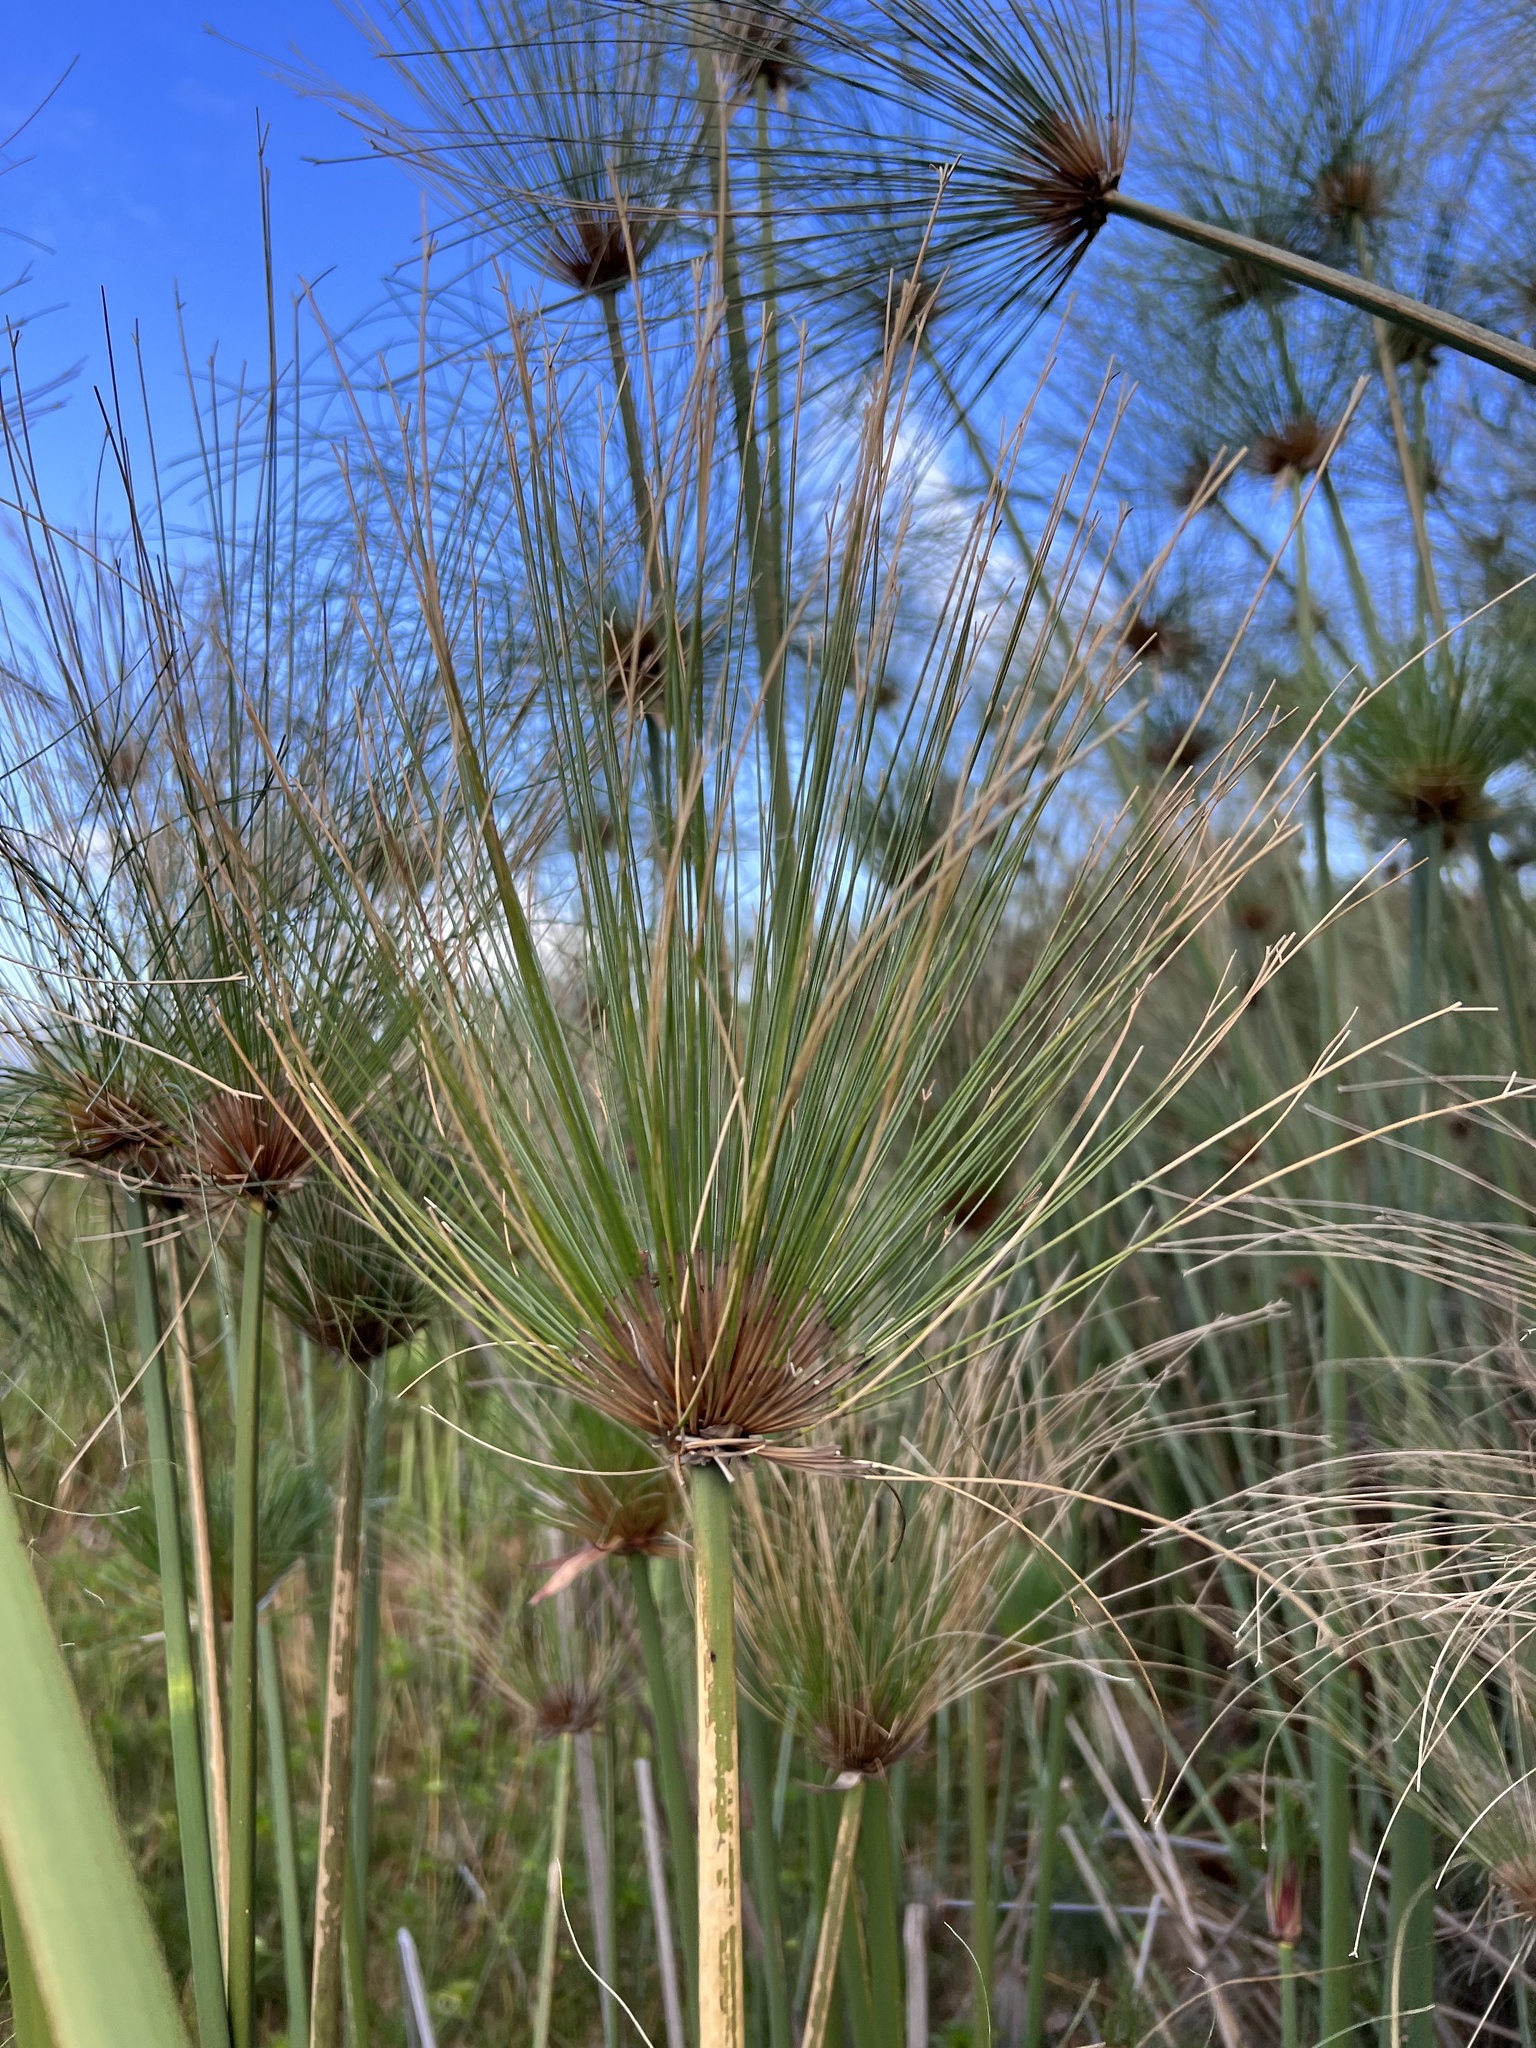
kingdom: Plantae
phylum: Tracheophyta
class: Liliopsida
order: Poales
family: Cyperaceae
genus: Cyperus
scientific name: Cyperus papyrus
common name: Papyrus
